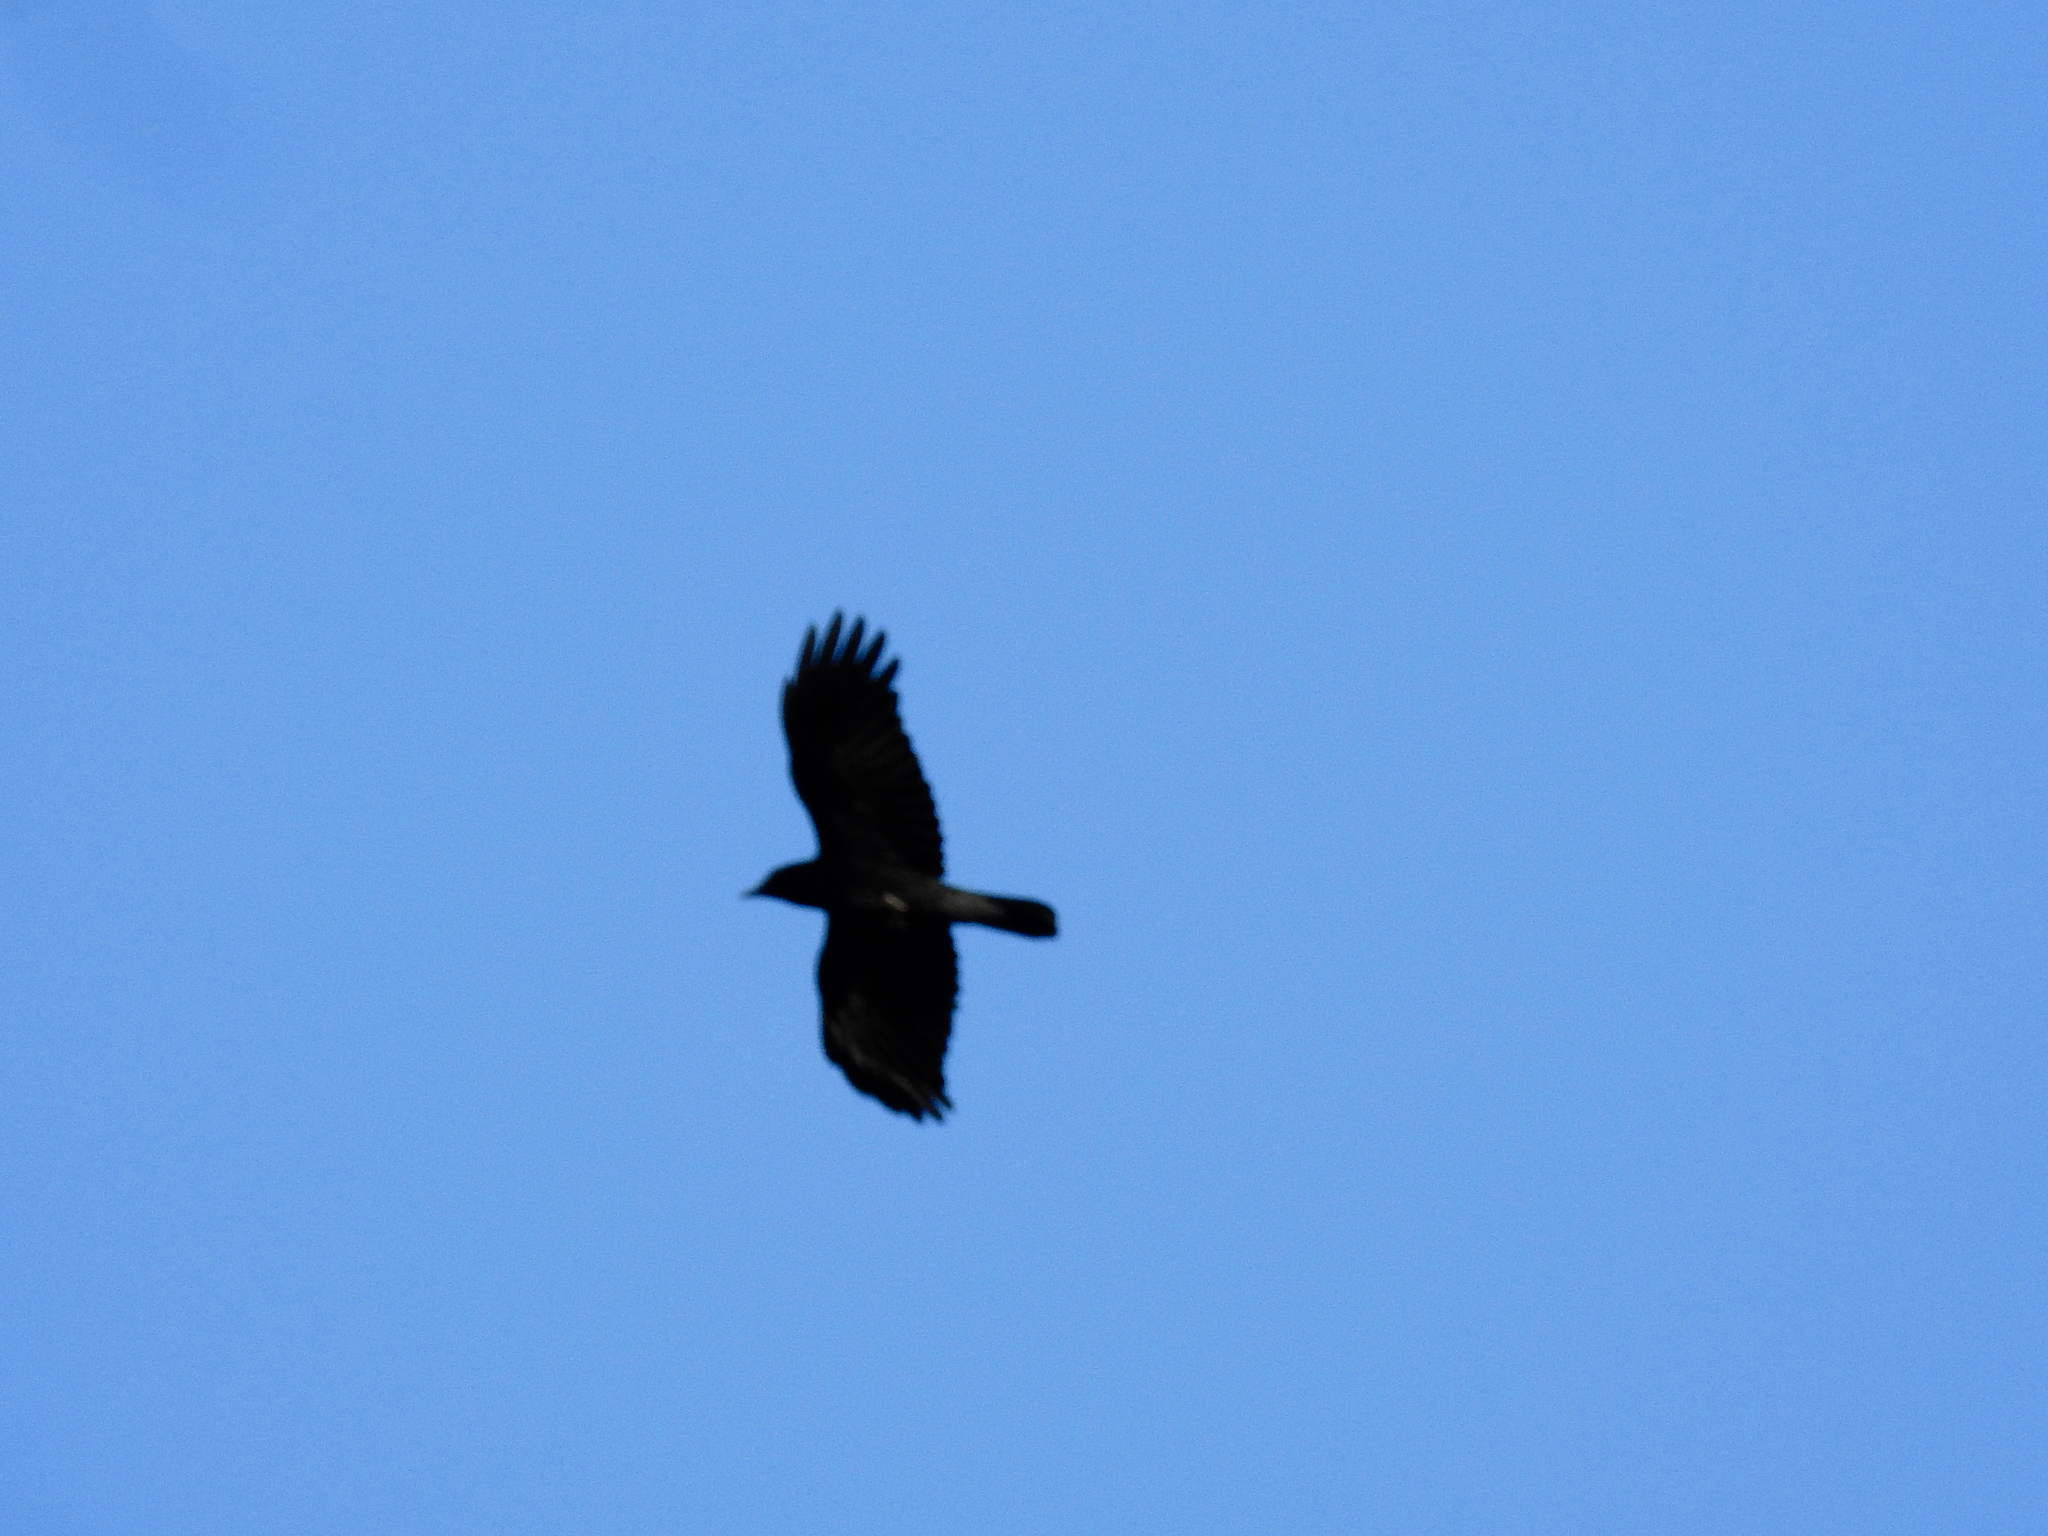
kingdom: Animalia
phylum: Chordata
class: Aves
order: Passeriformes
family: Corvidae
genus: Corvus
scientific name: Corvus brachyrhynchos
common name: American crow
